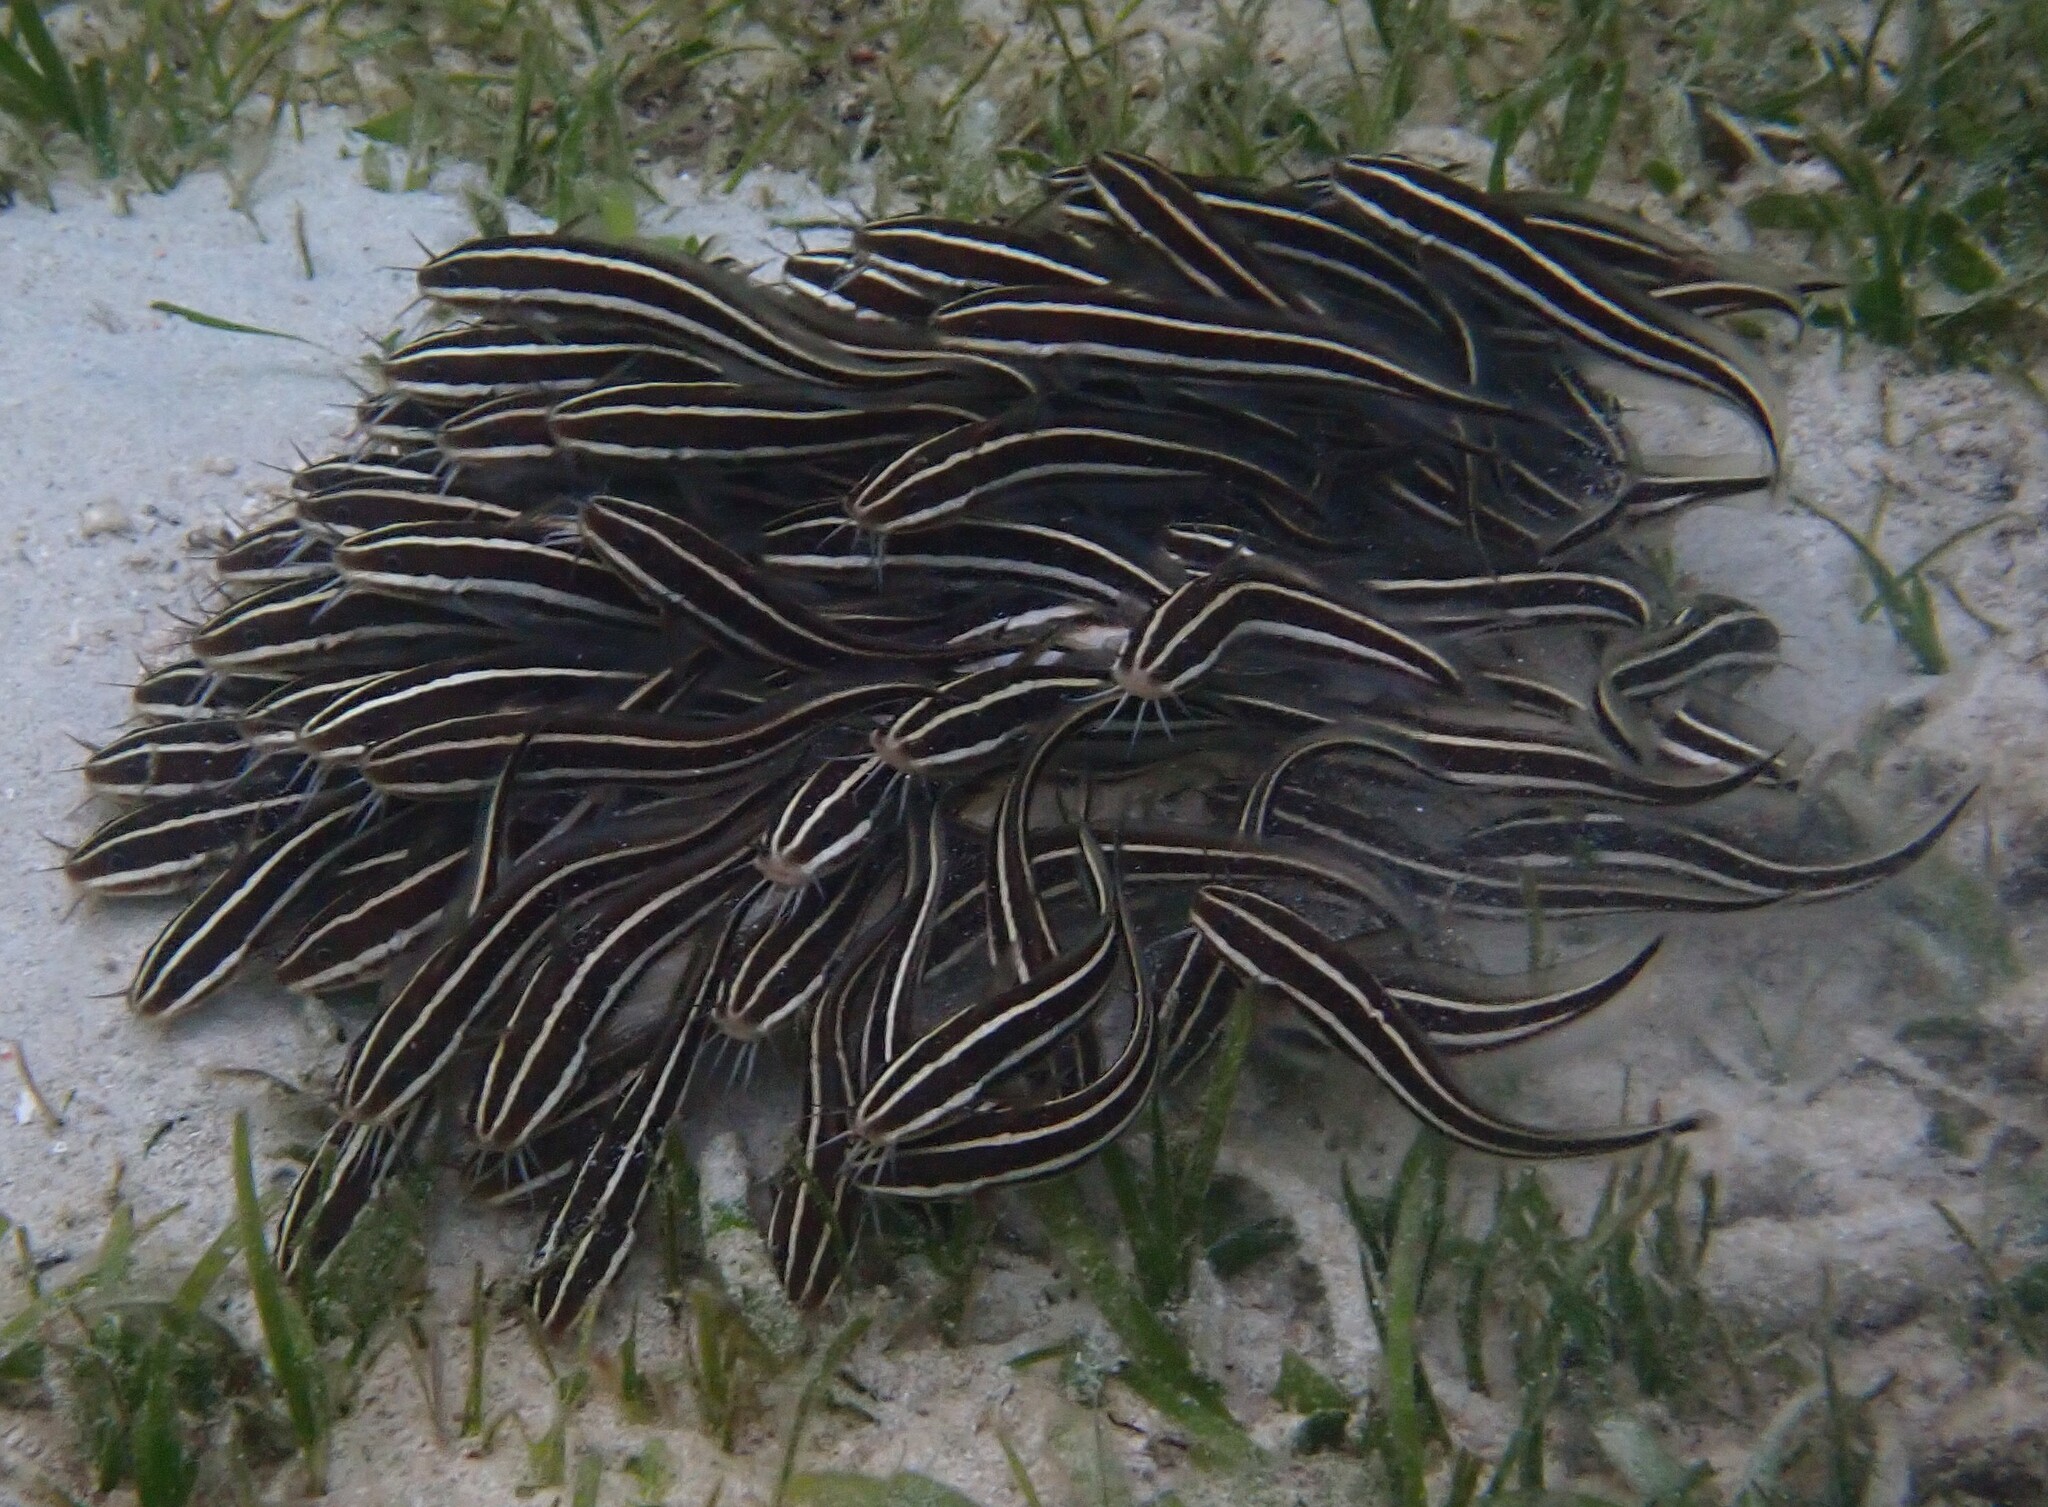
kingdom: Animalia
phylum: Chordata
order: Siluriformes
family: Plotosidae
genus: Plotosus
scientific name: Plotosus lineatus
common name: Striped eel catfish
